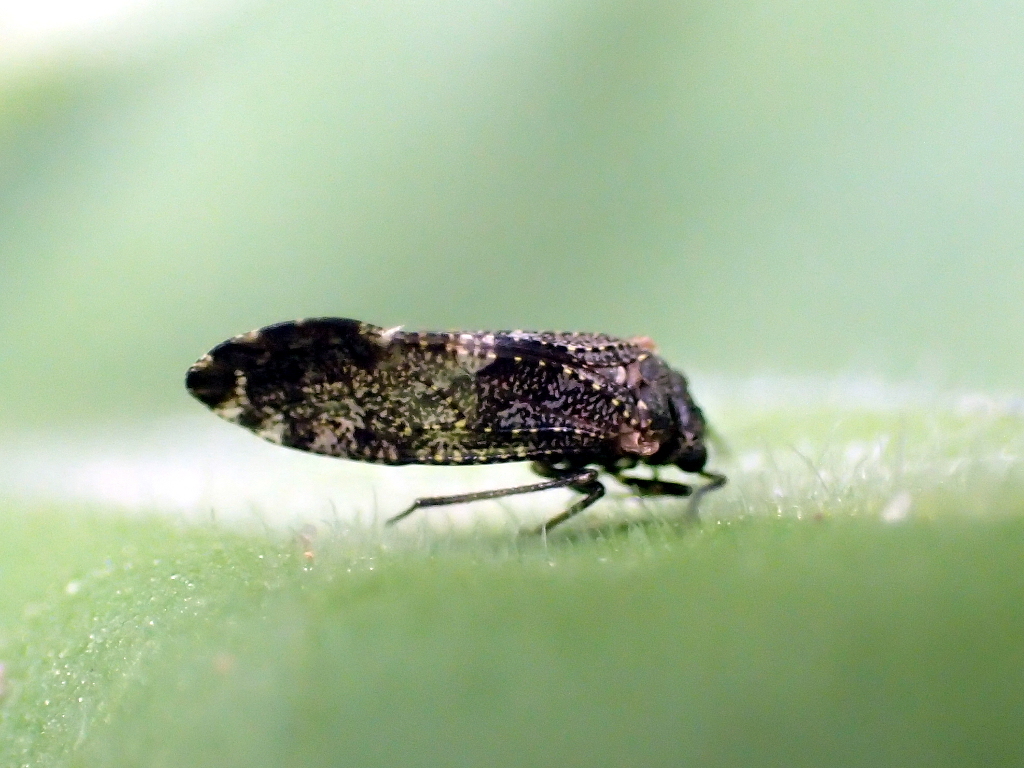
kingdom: Animalia
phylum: Arthropoda
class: Insecta
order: Psocodea
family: Myopsocidae
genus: Nimbopsocus
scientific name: Nimbopsocus australis
